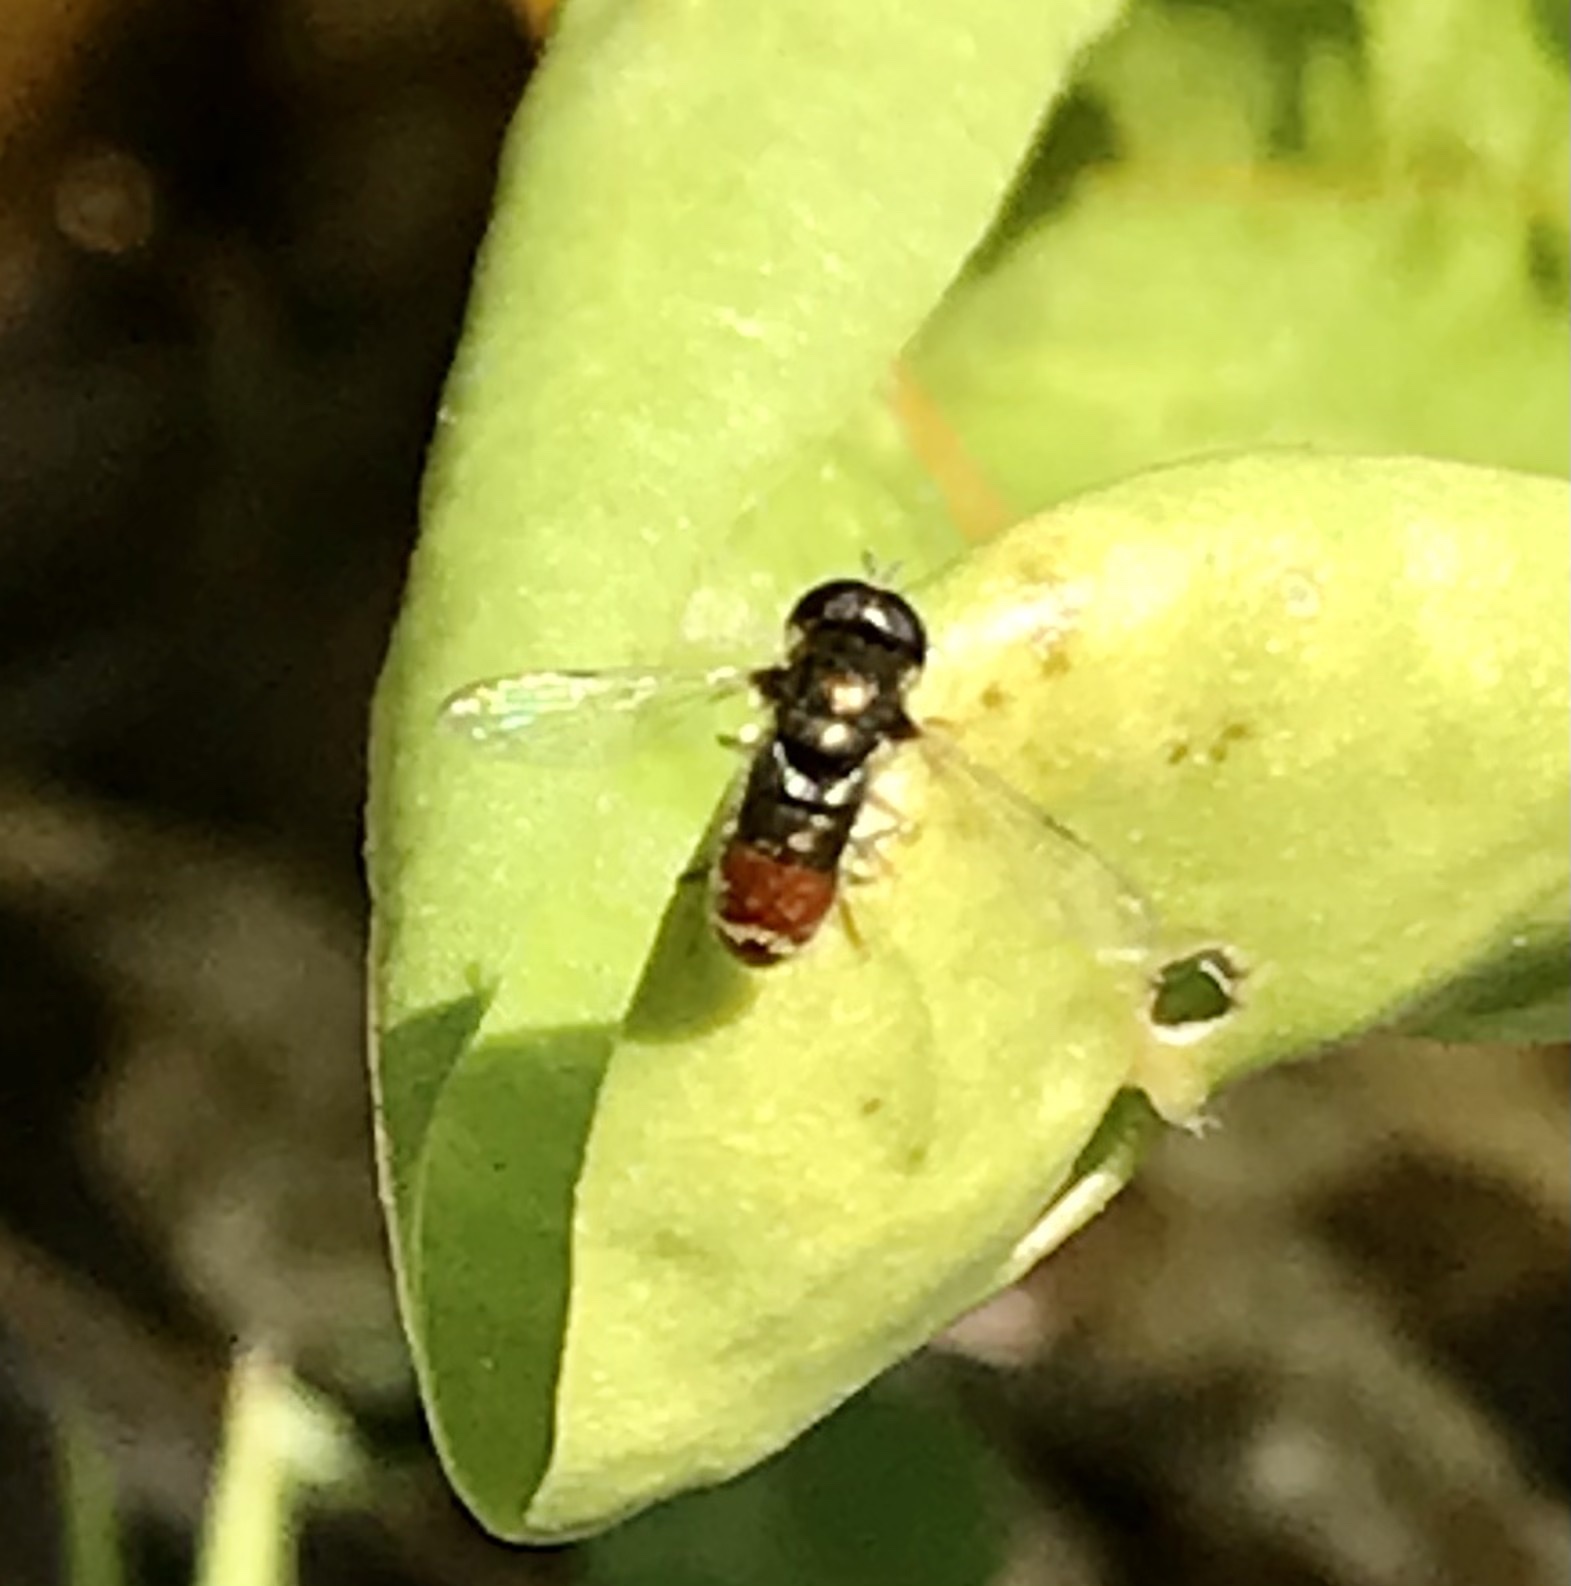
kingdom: Animalia
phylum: Arthropoda
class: Insecta
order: Diptera
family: Syrphidae
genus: Paragus
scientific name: Paragus haemorrhous
